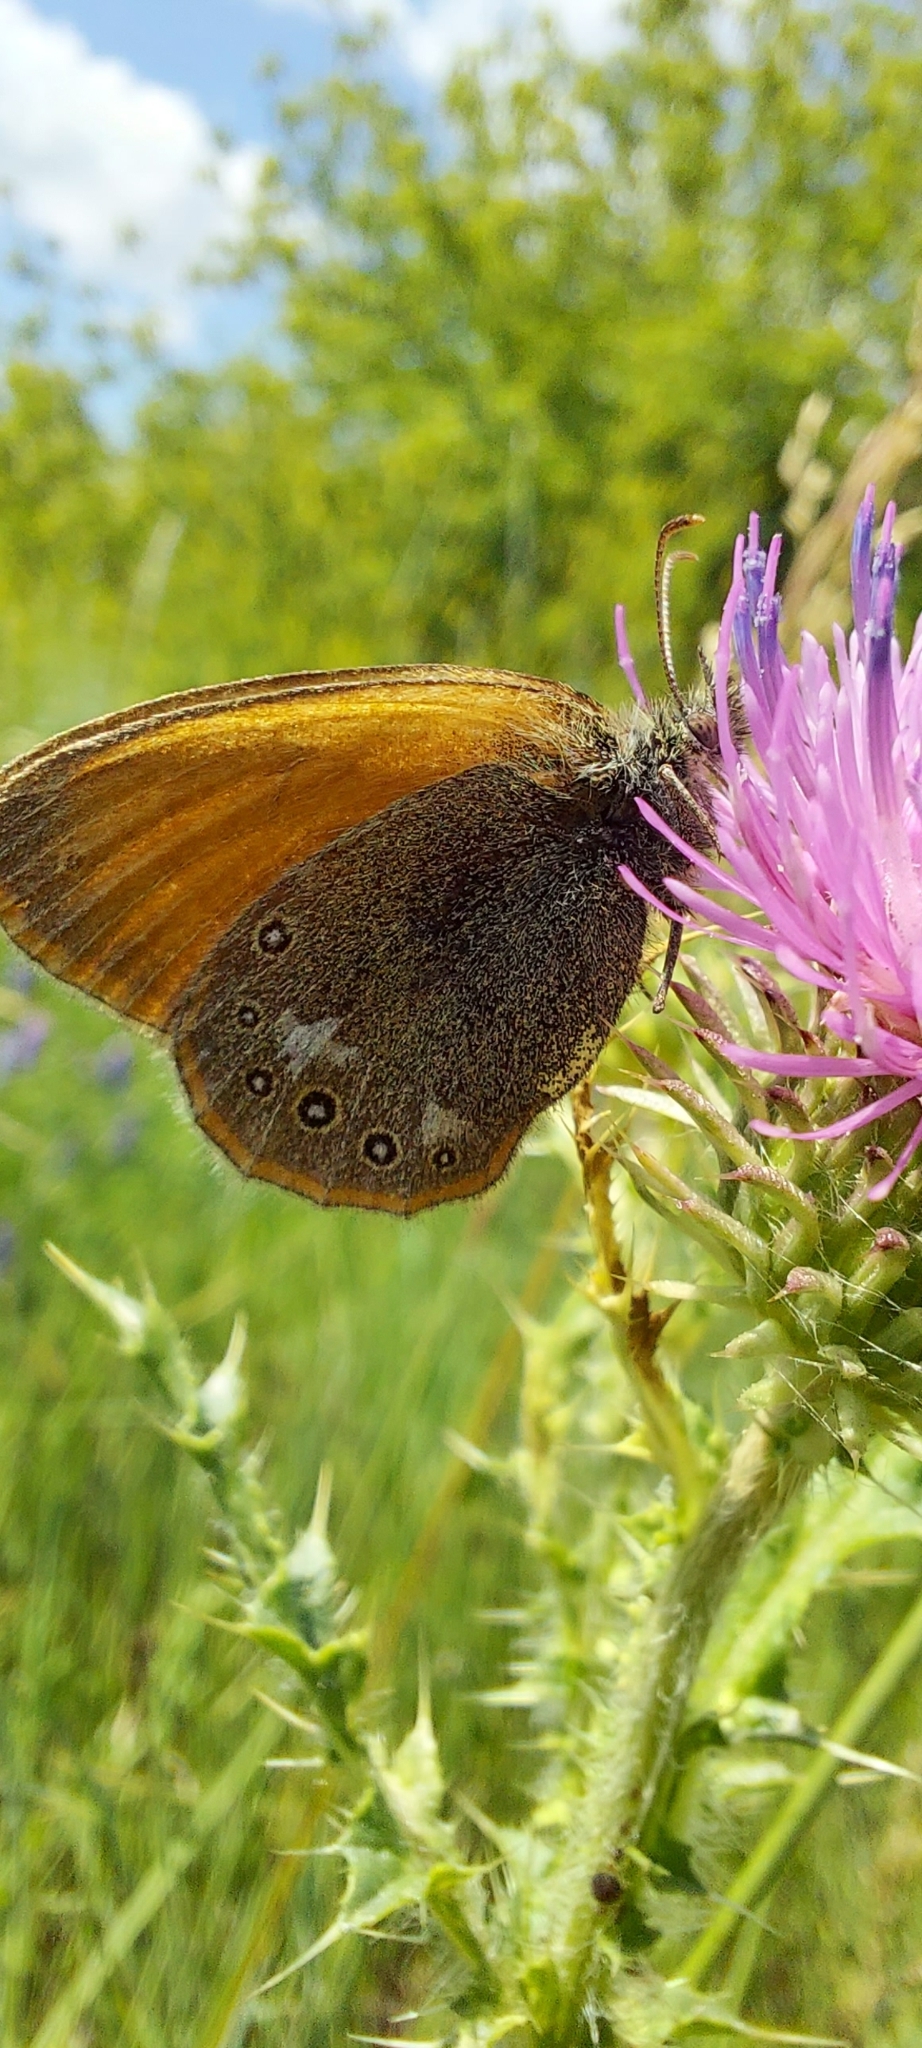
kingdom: Animalia
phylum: Arthropoda
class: Insecta
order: Lepidoptera
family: Nymphalidae
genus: Coenonympha
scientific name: Coenonympha iphis
